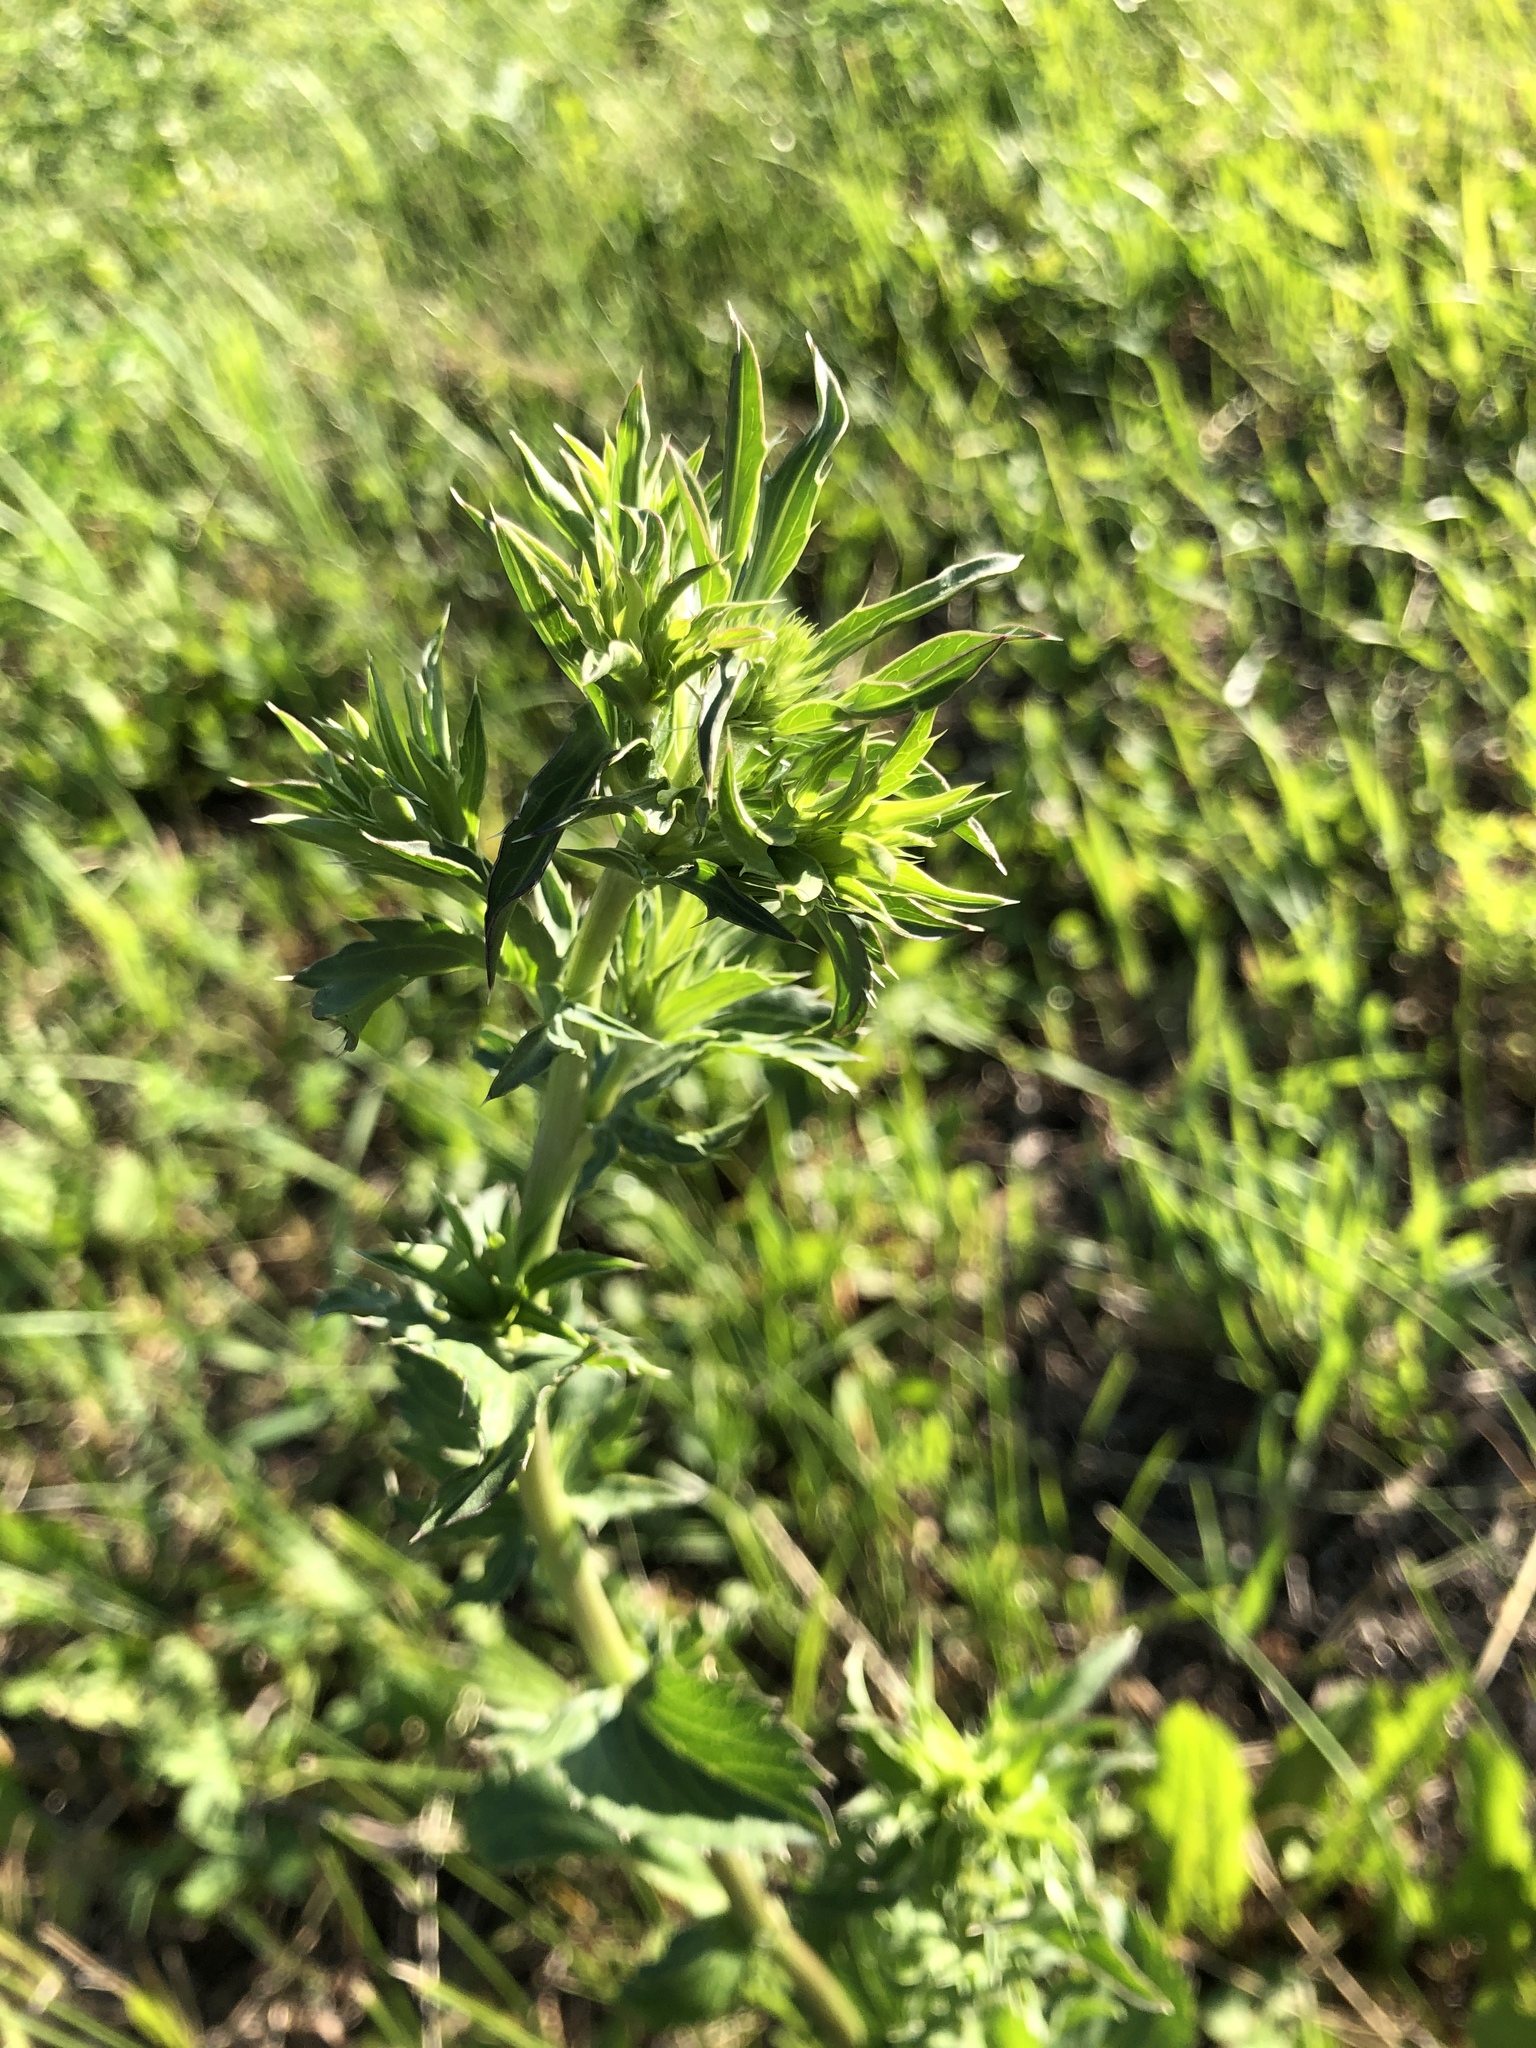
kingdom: Plantae
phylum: Tracheophyta
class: Magnoliopsida
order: Apiales
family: Apiaceae
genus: Eryngium
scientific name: Eryngium planum
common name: Blue eryngo
